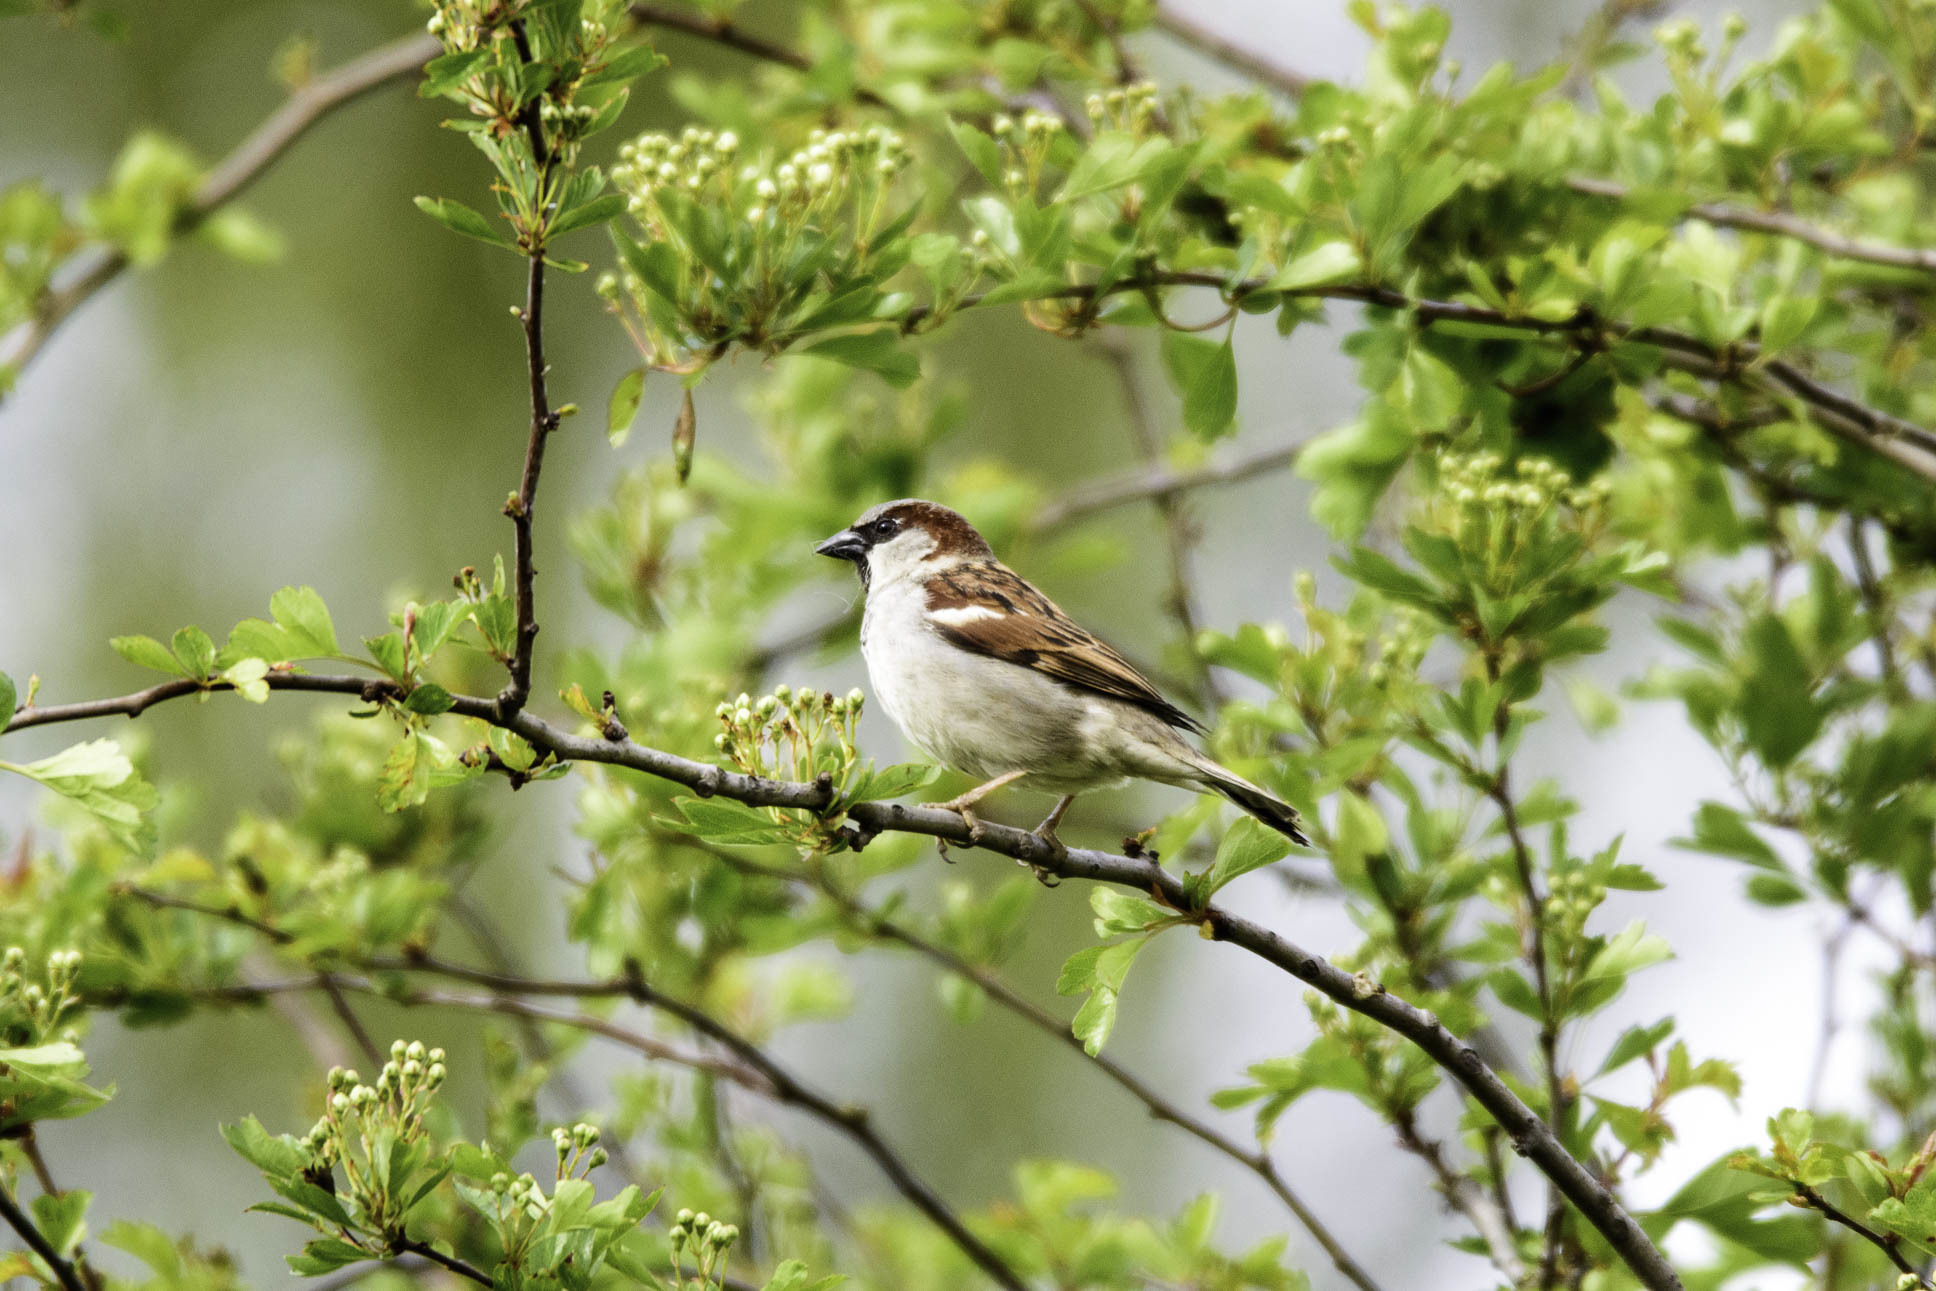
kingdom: Animalia
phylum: Chordata
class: Aves
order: Passeriformes
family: Passeridae
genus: Passer
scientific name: Passer domesticus
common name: House sparrow
